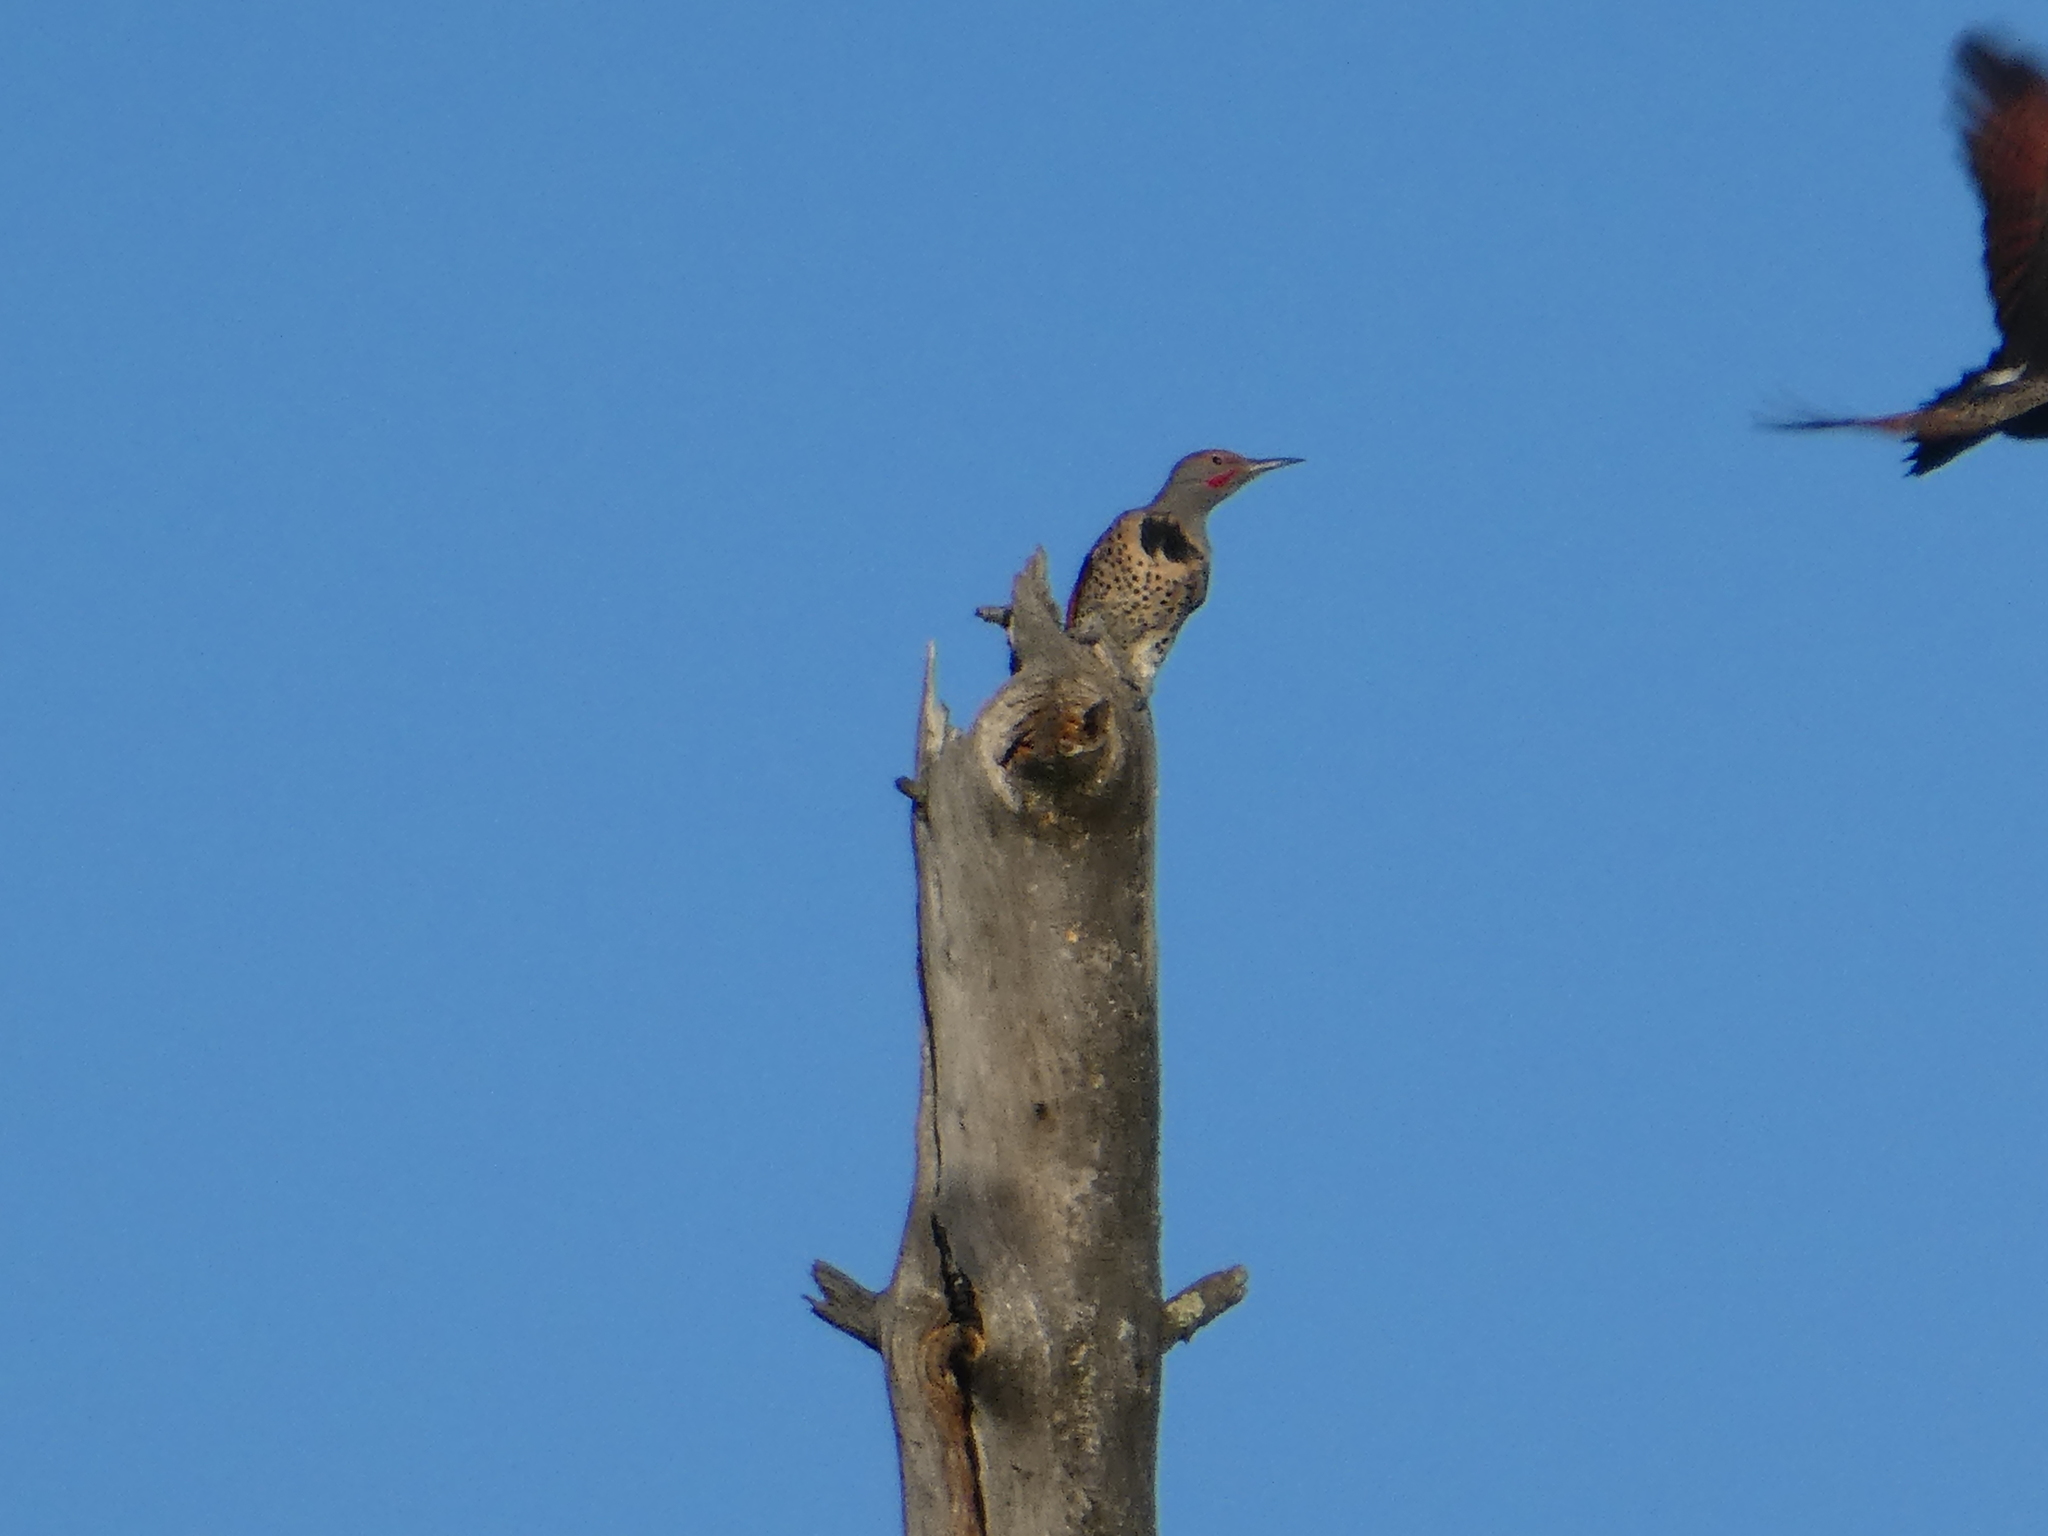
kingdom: Animalia
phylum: Chordata
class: Aves
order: Piciformes
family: Picidae
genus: Colaptes
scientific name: Colaptes auratus
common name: Northern flicker
